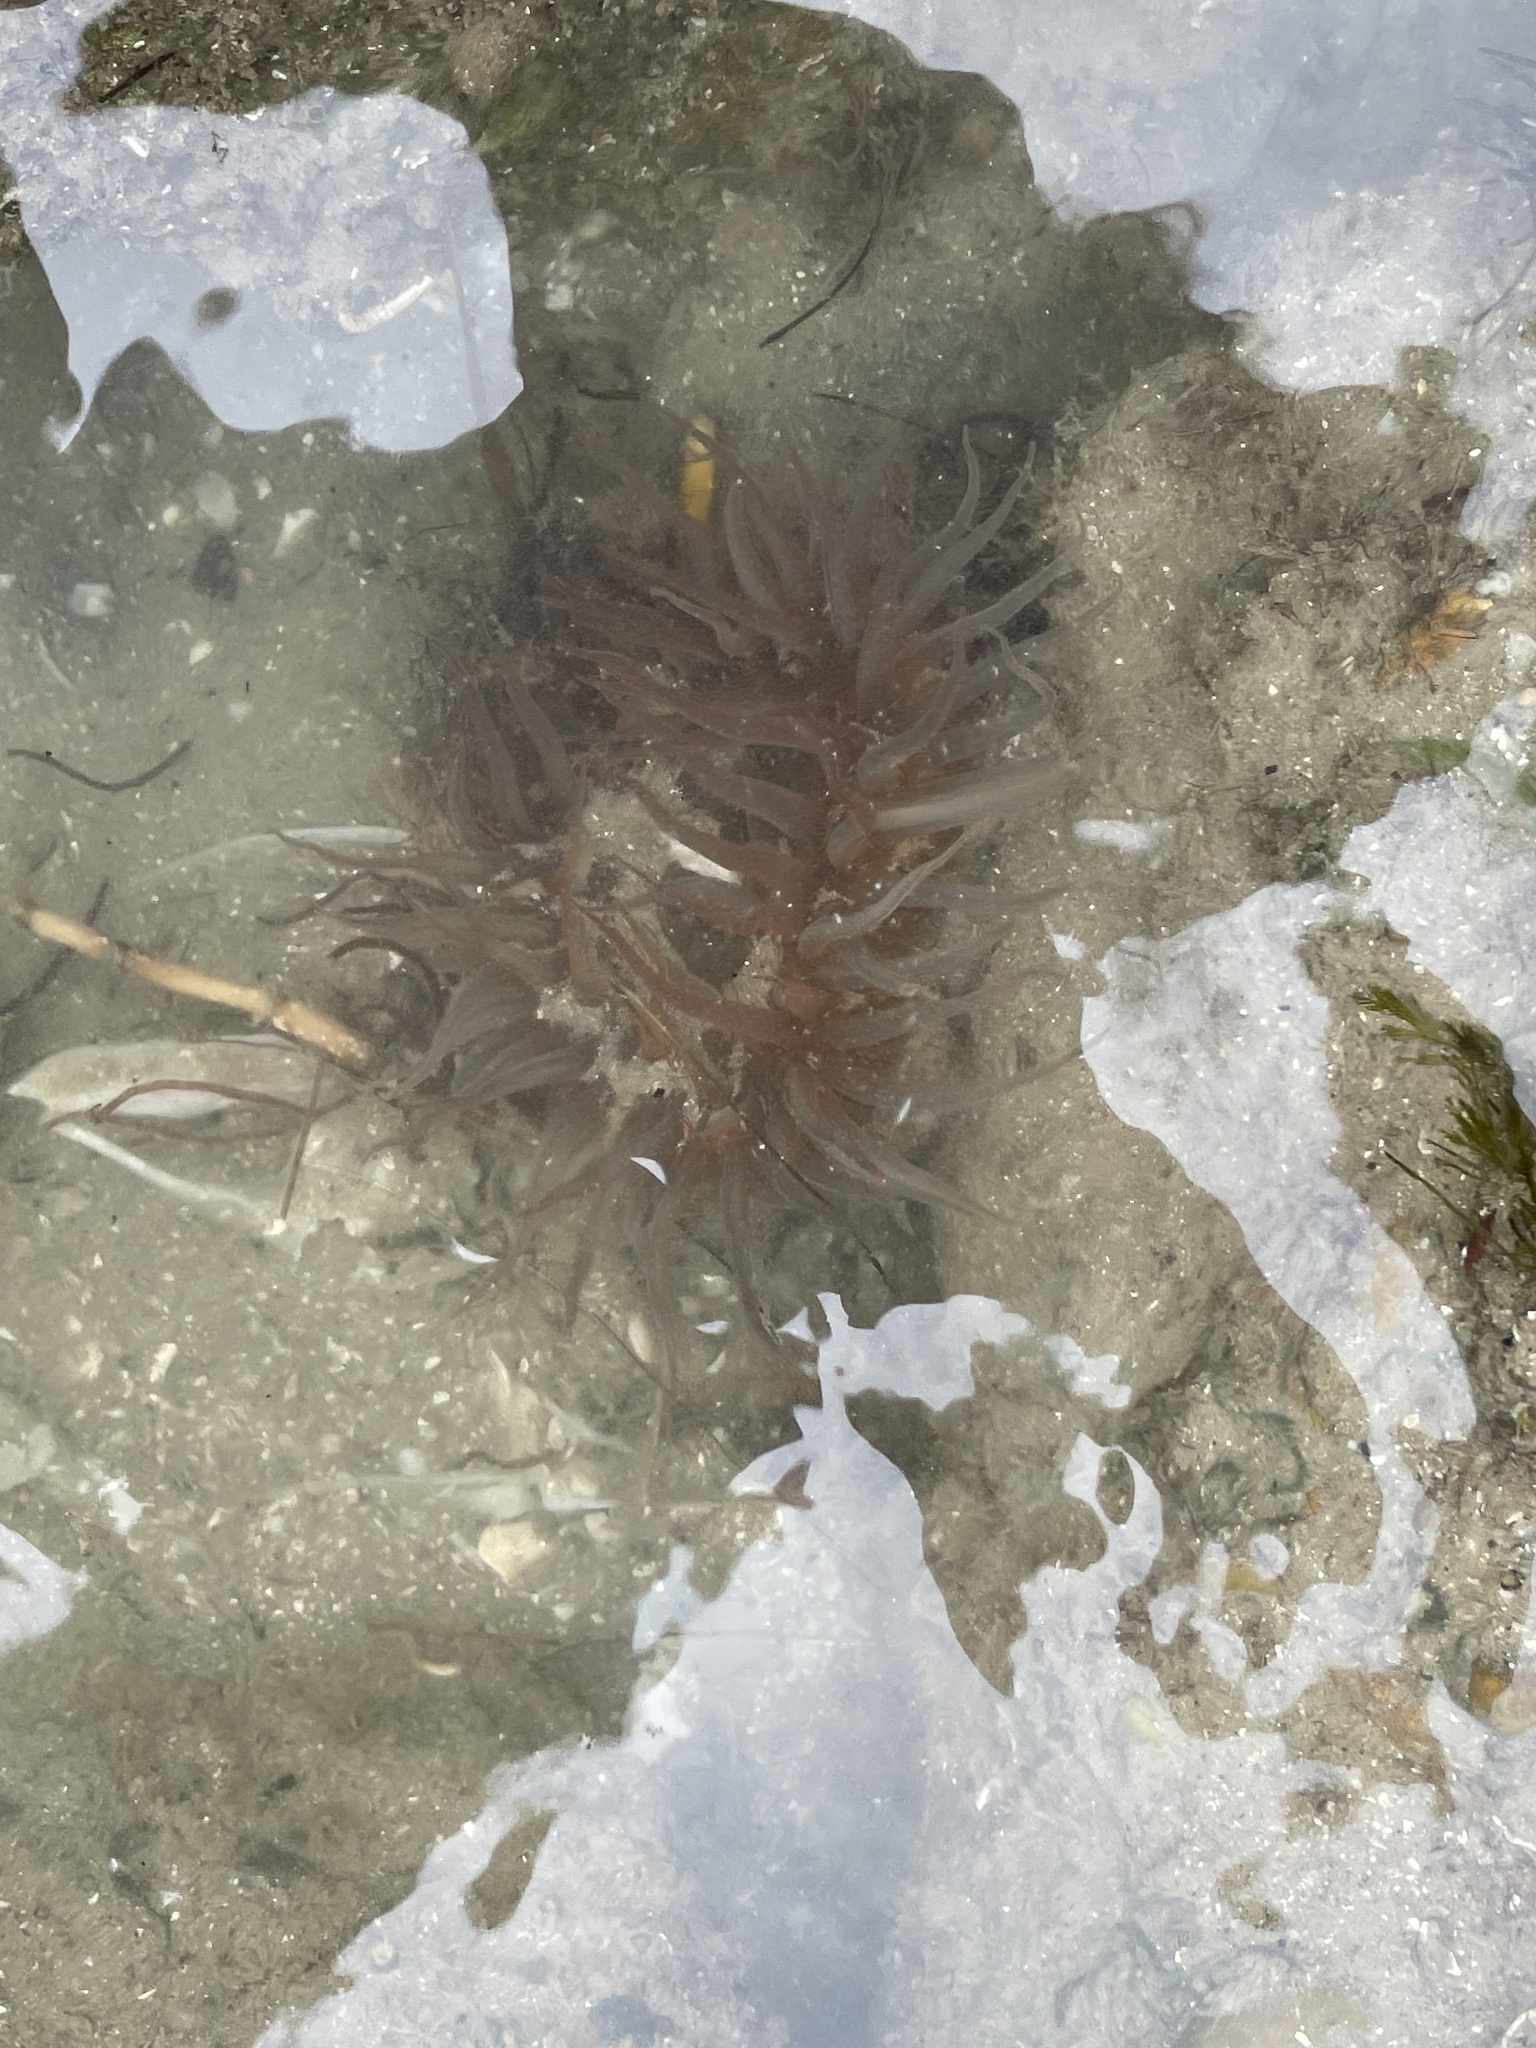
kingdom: Animalia
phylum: Cnidaria
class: Anthozoa
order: Actiniaria
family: Actiniidae
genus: Bunodosoma
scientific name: Bunodosoma cavernatum
